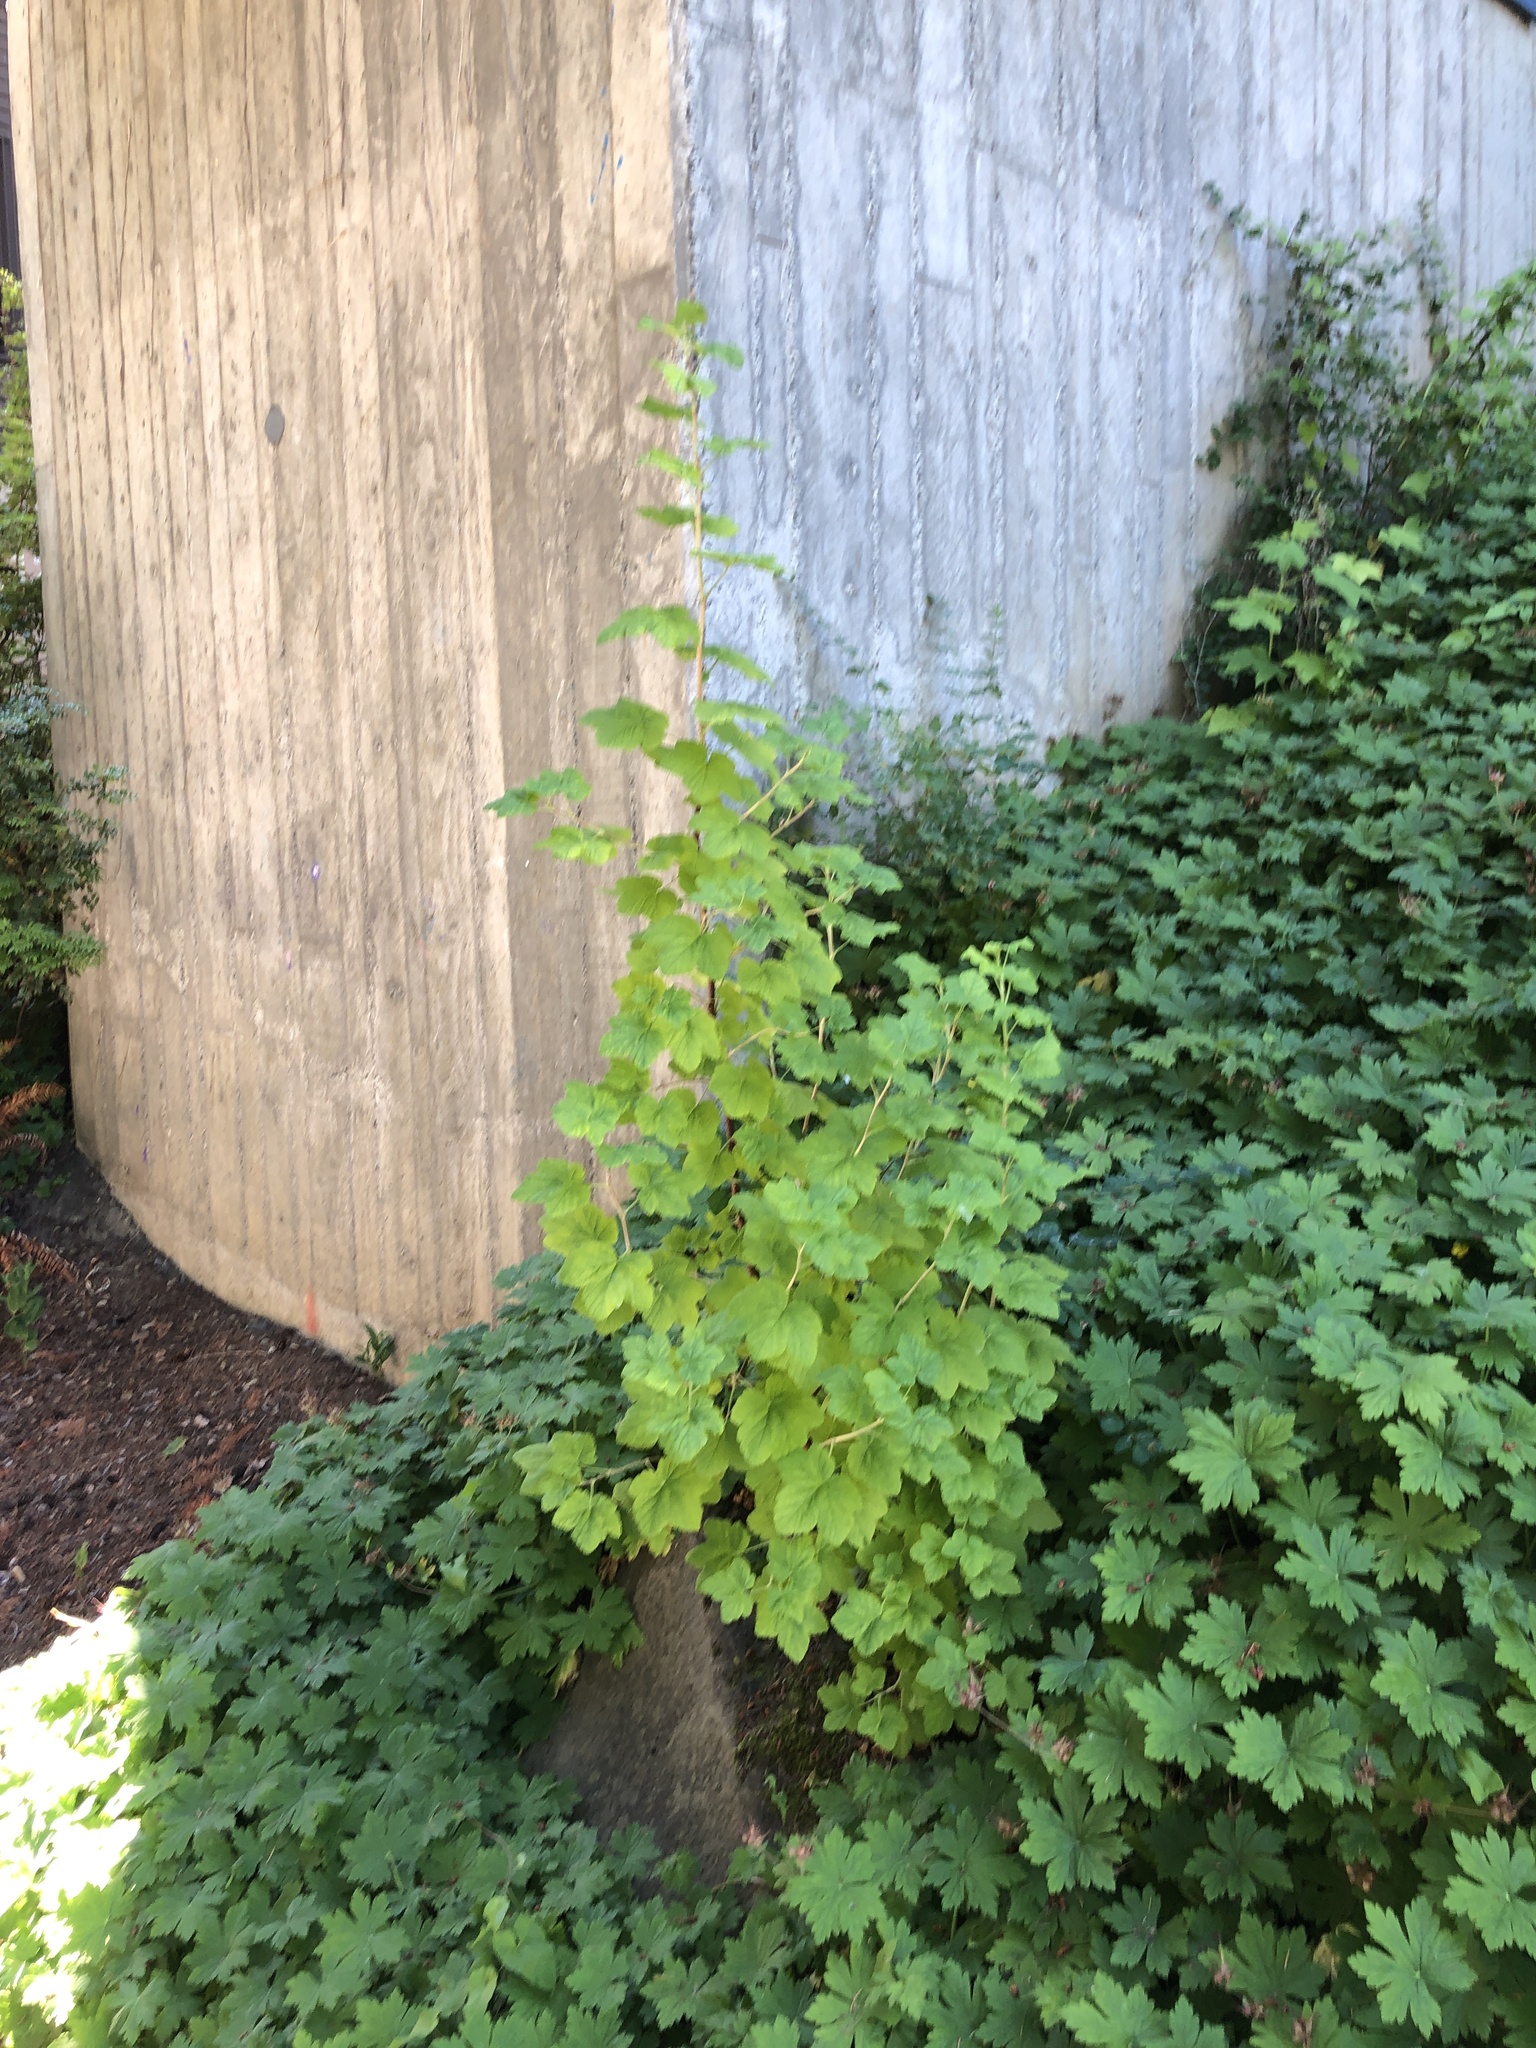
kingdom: Plantae
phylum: Tracheophyta
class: Magnoliopsida
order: Saxifragales
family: Grossulariaceae
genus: Ribes
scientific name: Ribes sanguineum
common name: Flowering currant
